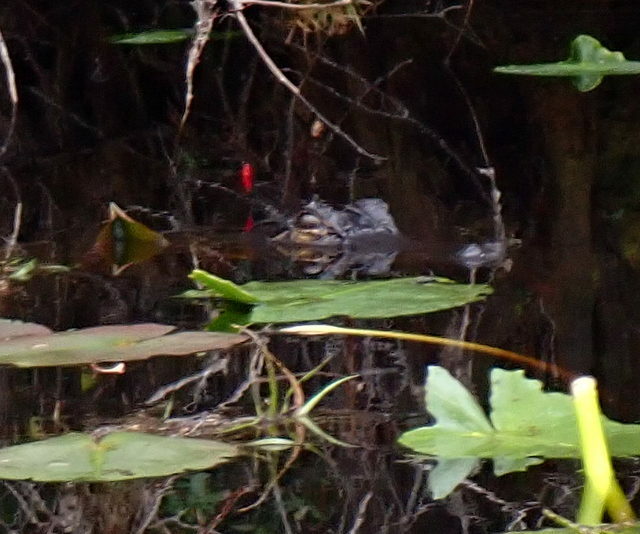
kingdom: Animalia
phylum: Chordata
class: Crocodylia
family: Alligatoridae
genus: Alligator
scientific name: Alligator mississippiensis
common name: American alligator
